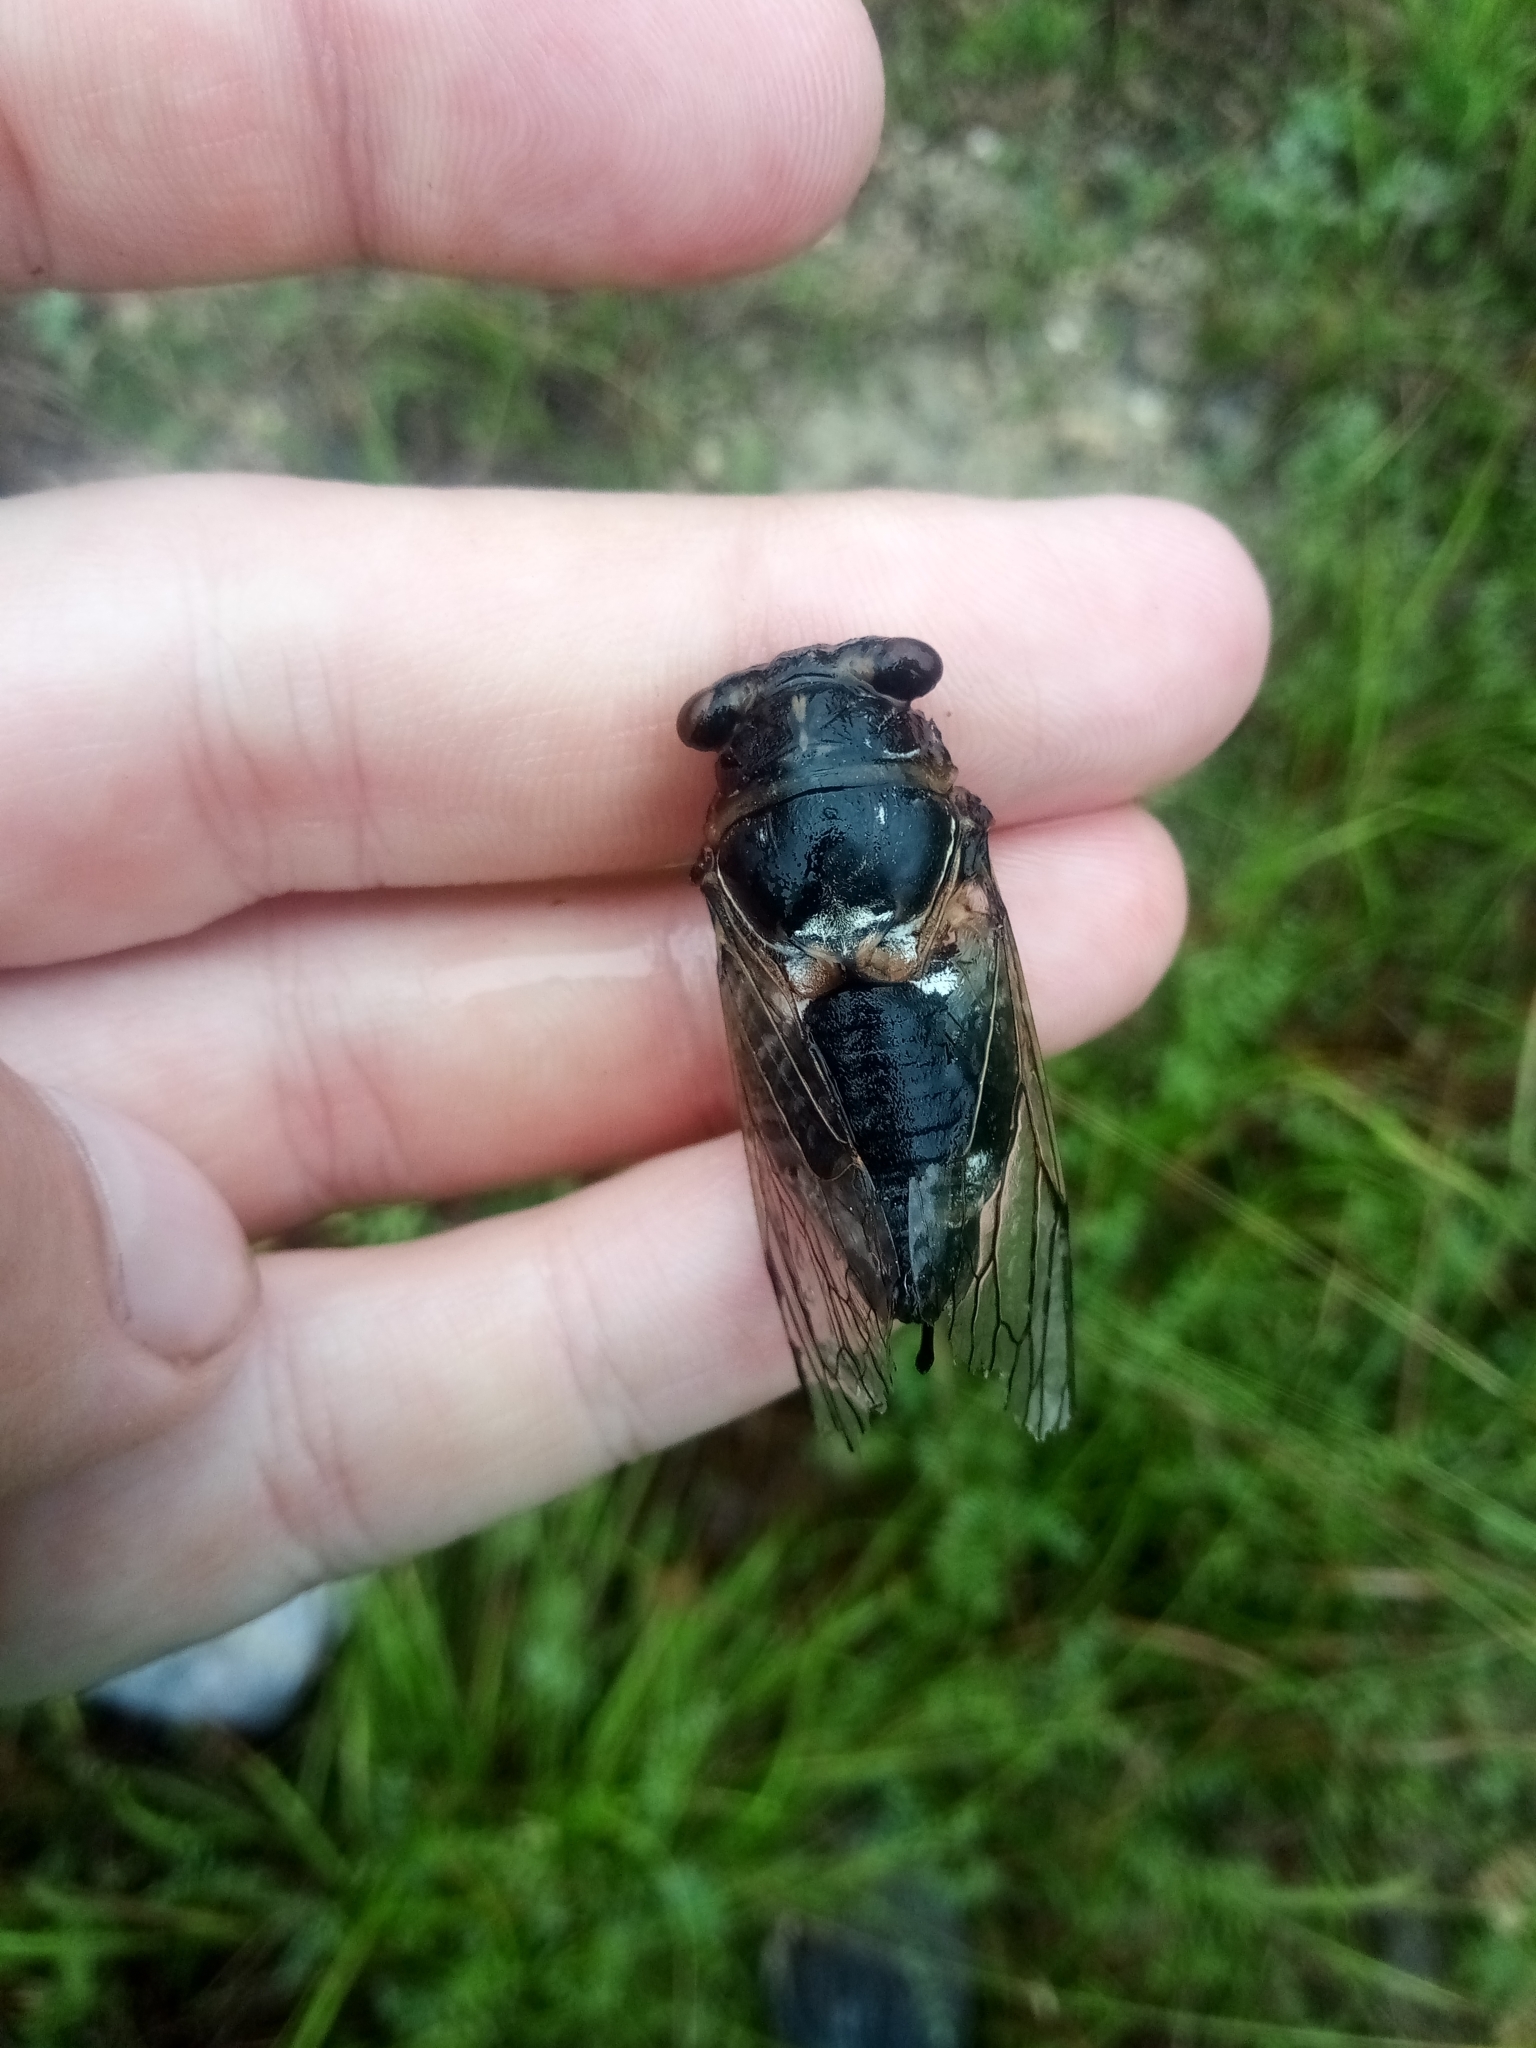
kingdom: Animalia
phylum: Arthropoda
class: Insecta
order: Hemiptera
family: Cicadidae
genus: Lyristes
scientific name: Lyristes plebejus
